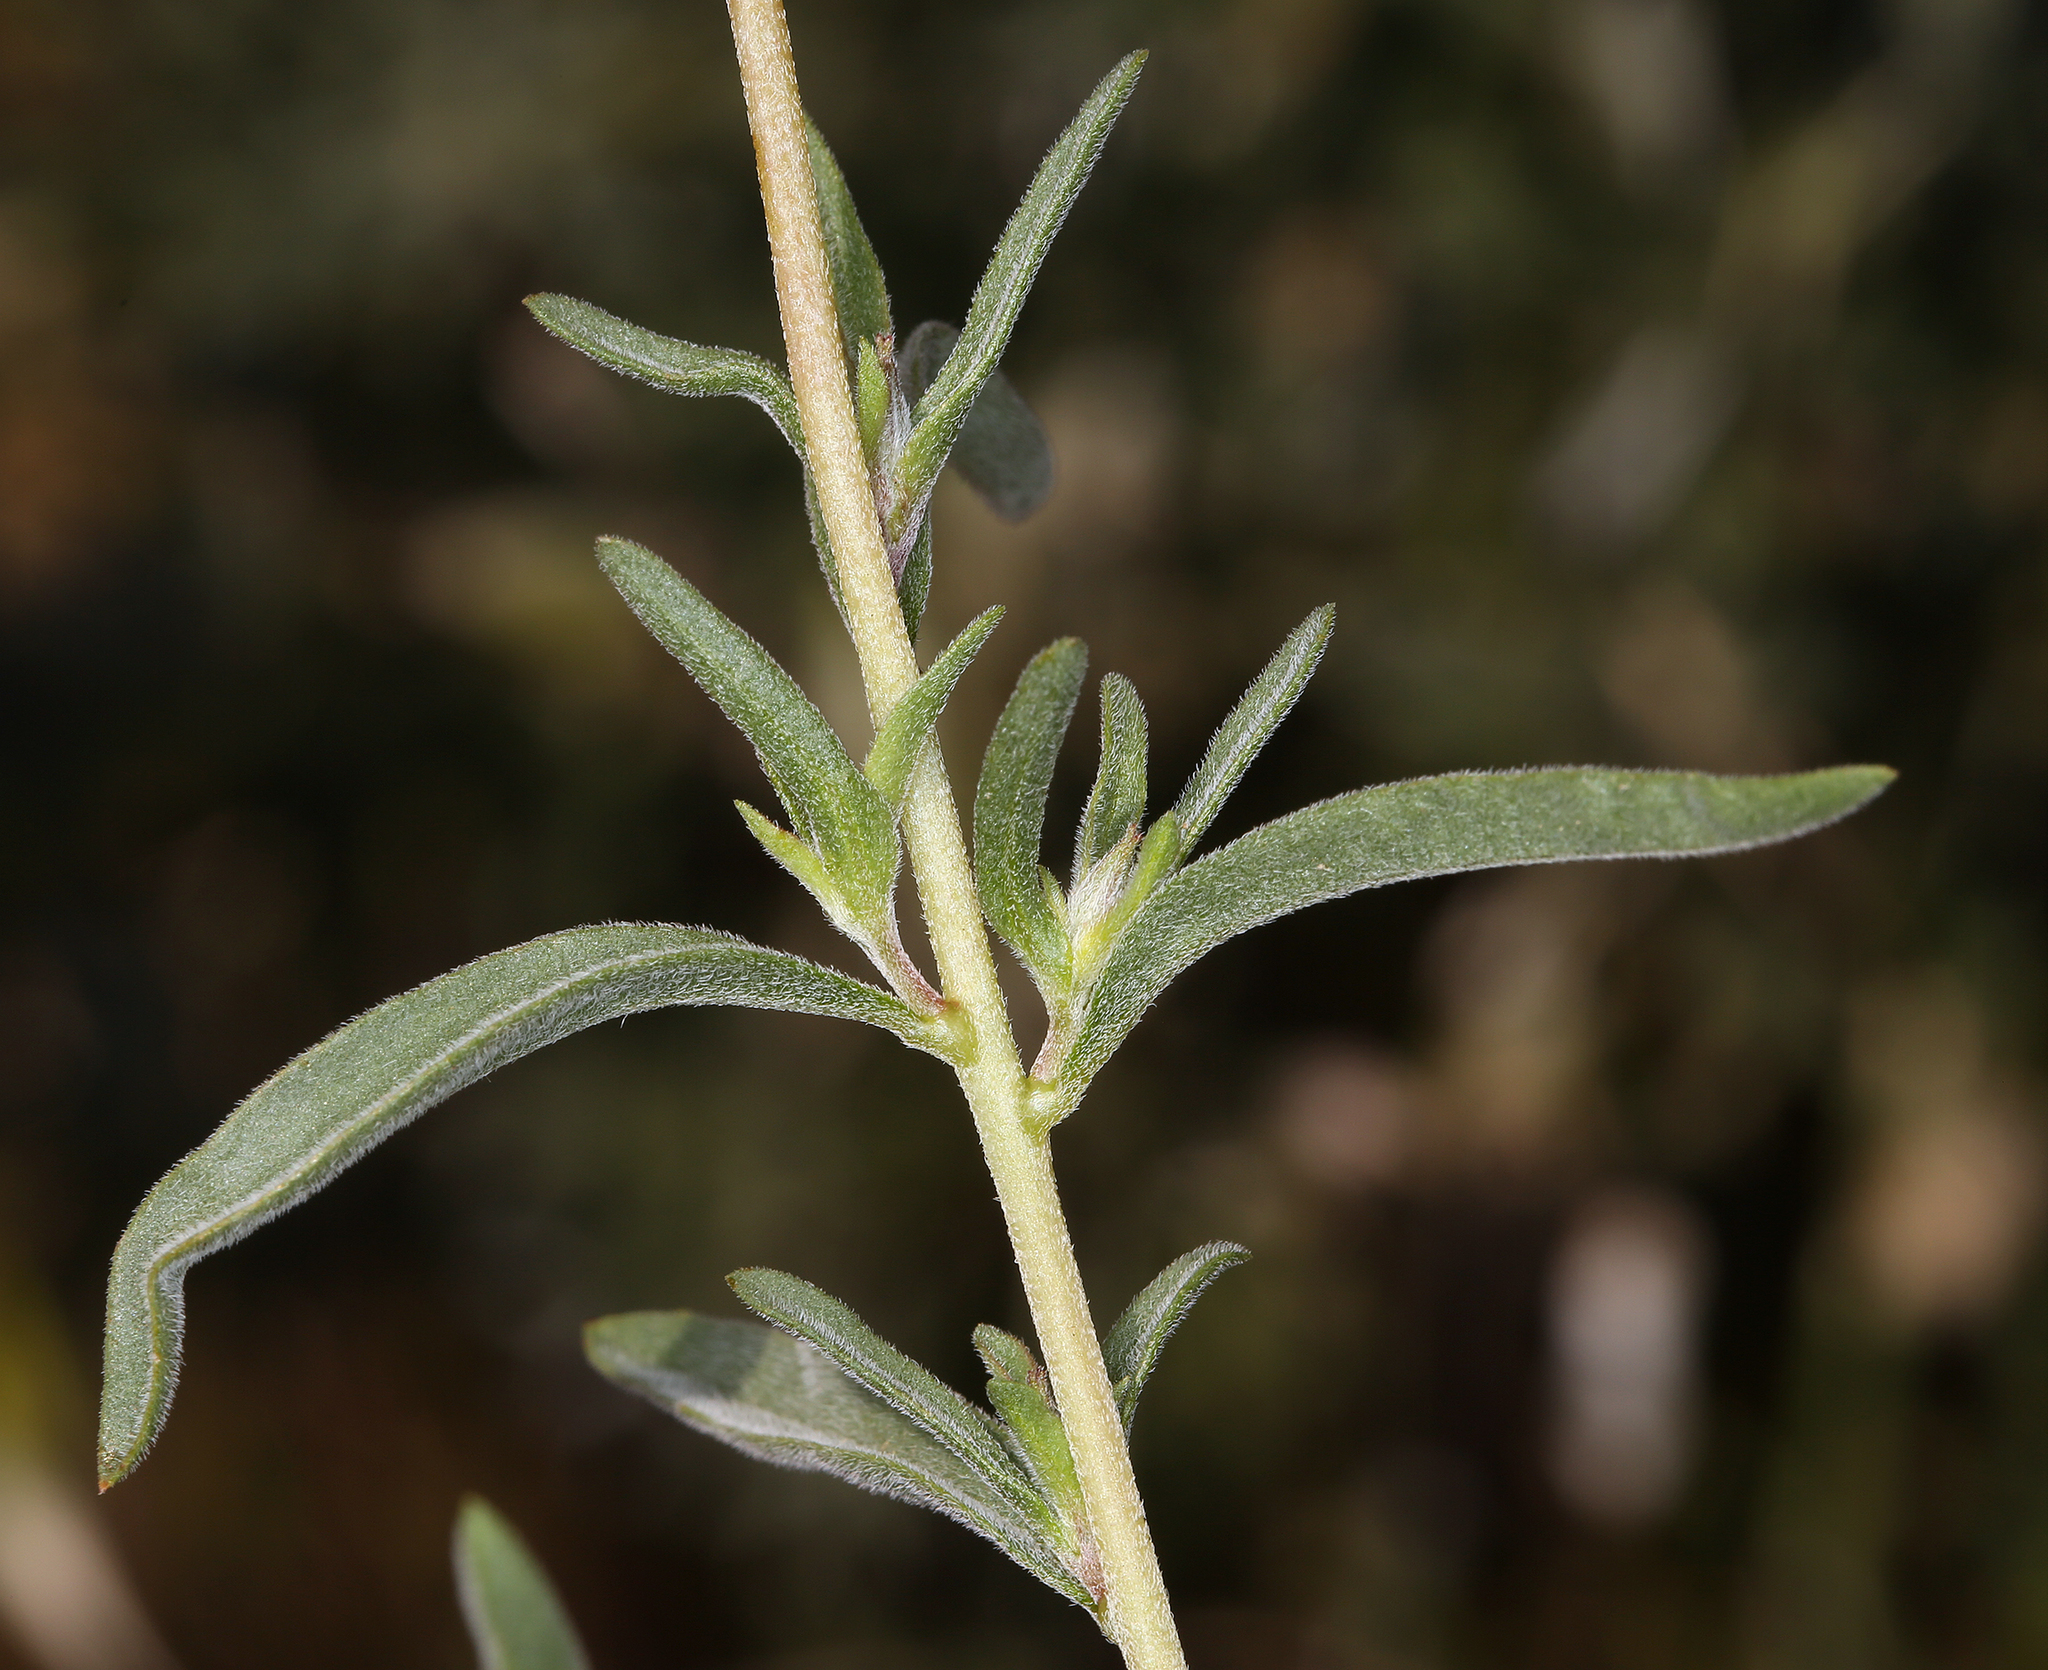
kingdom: Plantae
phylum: Tracheophyta
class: Magnoliopsida
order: Myrtales
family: Onagraceae
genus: Clarkia
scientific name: Clarkia purpurea
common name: Purple clarkia
